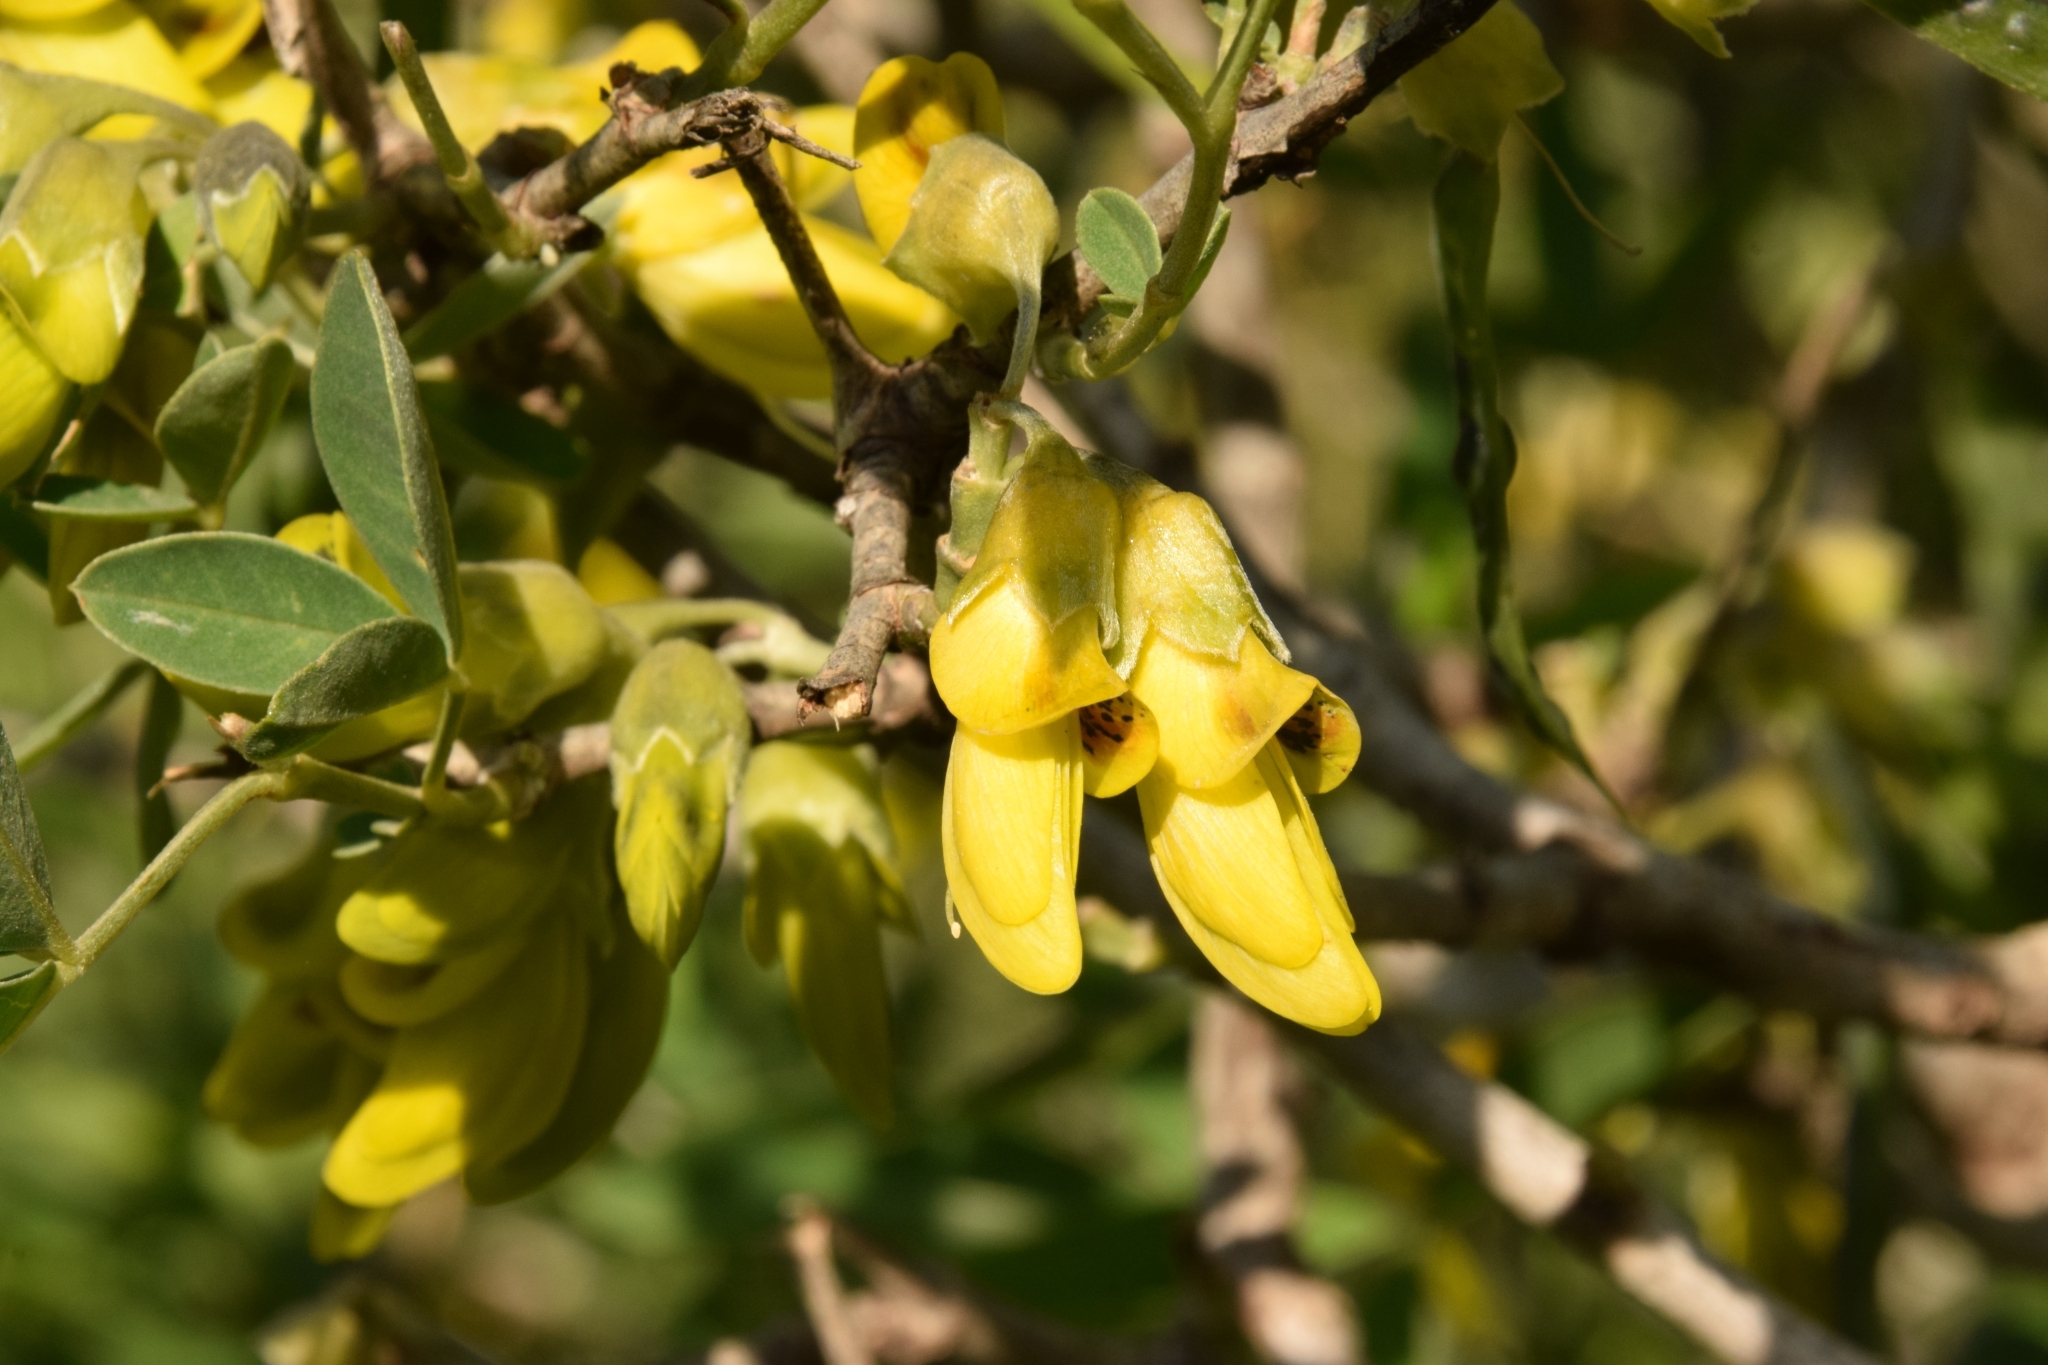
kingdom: Plantae
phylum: Tracheophyta
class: Magnoliopsida
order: Fabales
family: Fabaceae
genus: Anagyris
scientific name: Anagyris foetida
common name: Stinking bean trefoil
